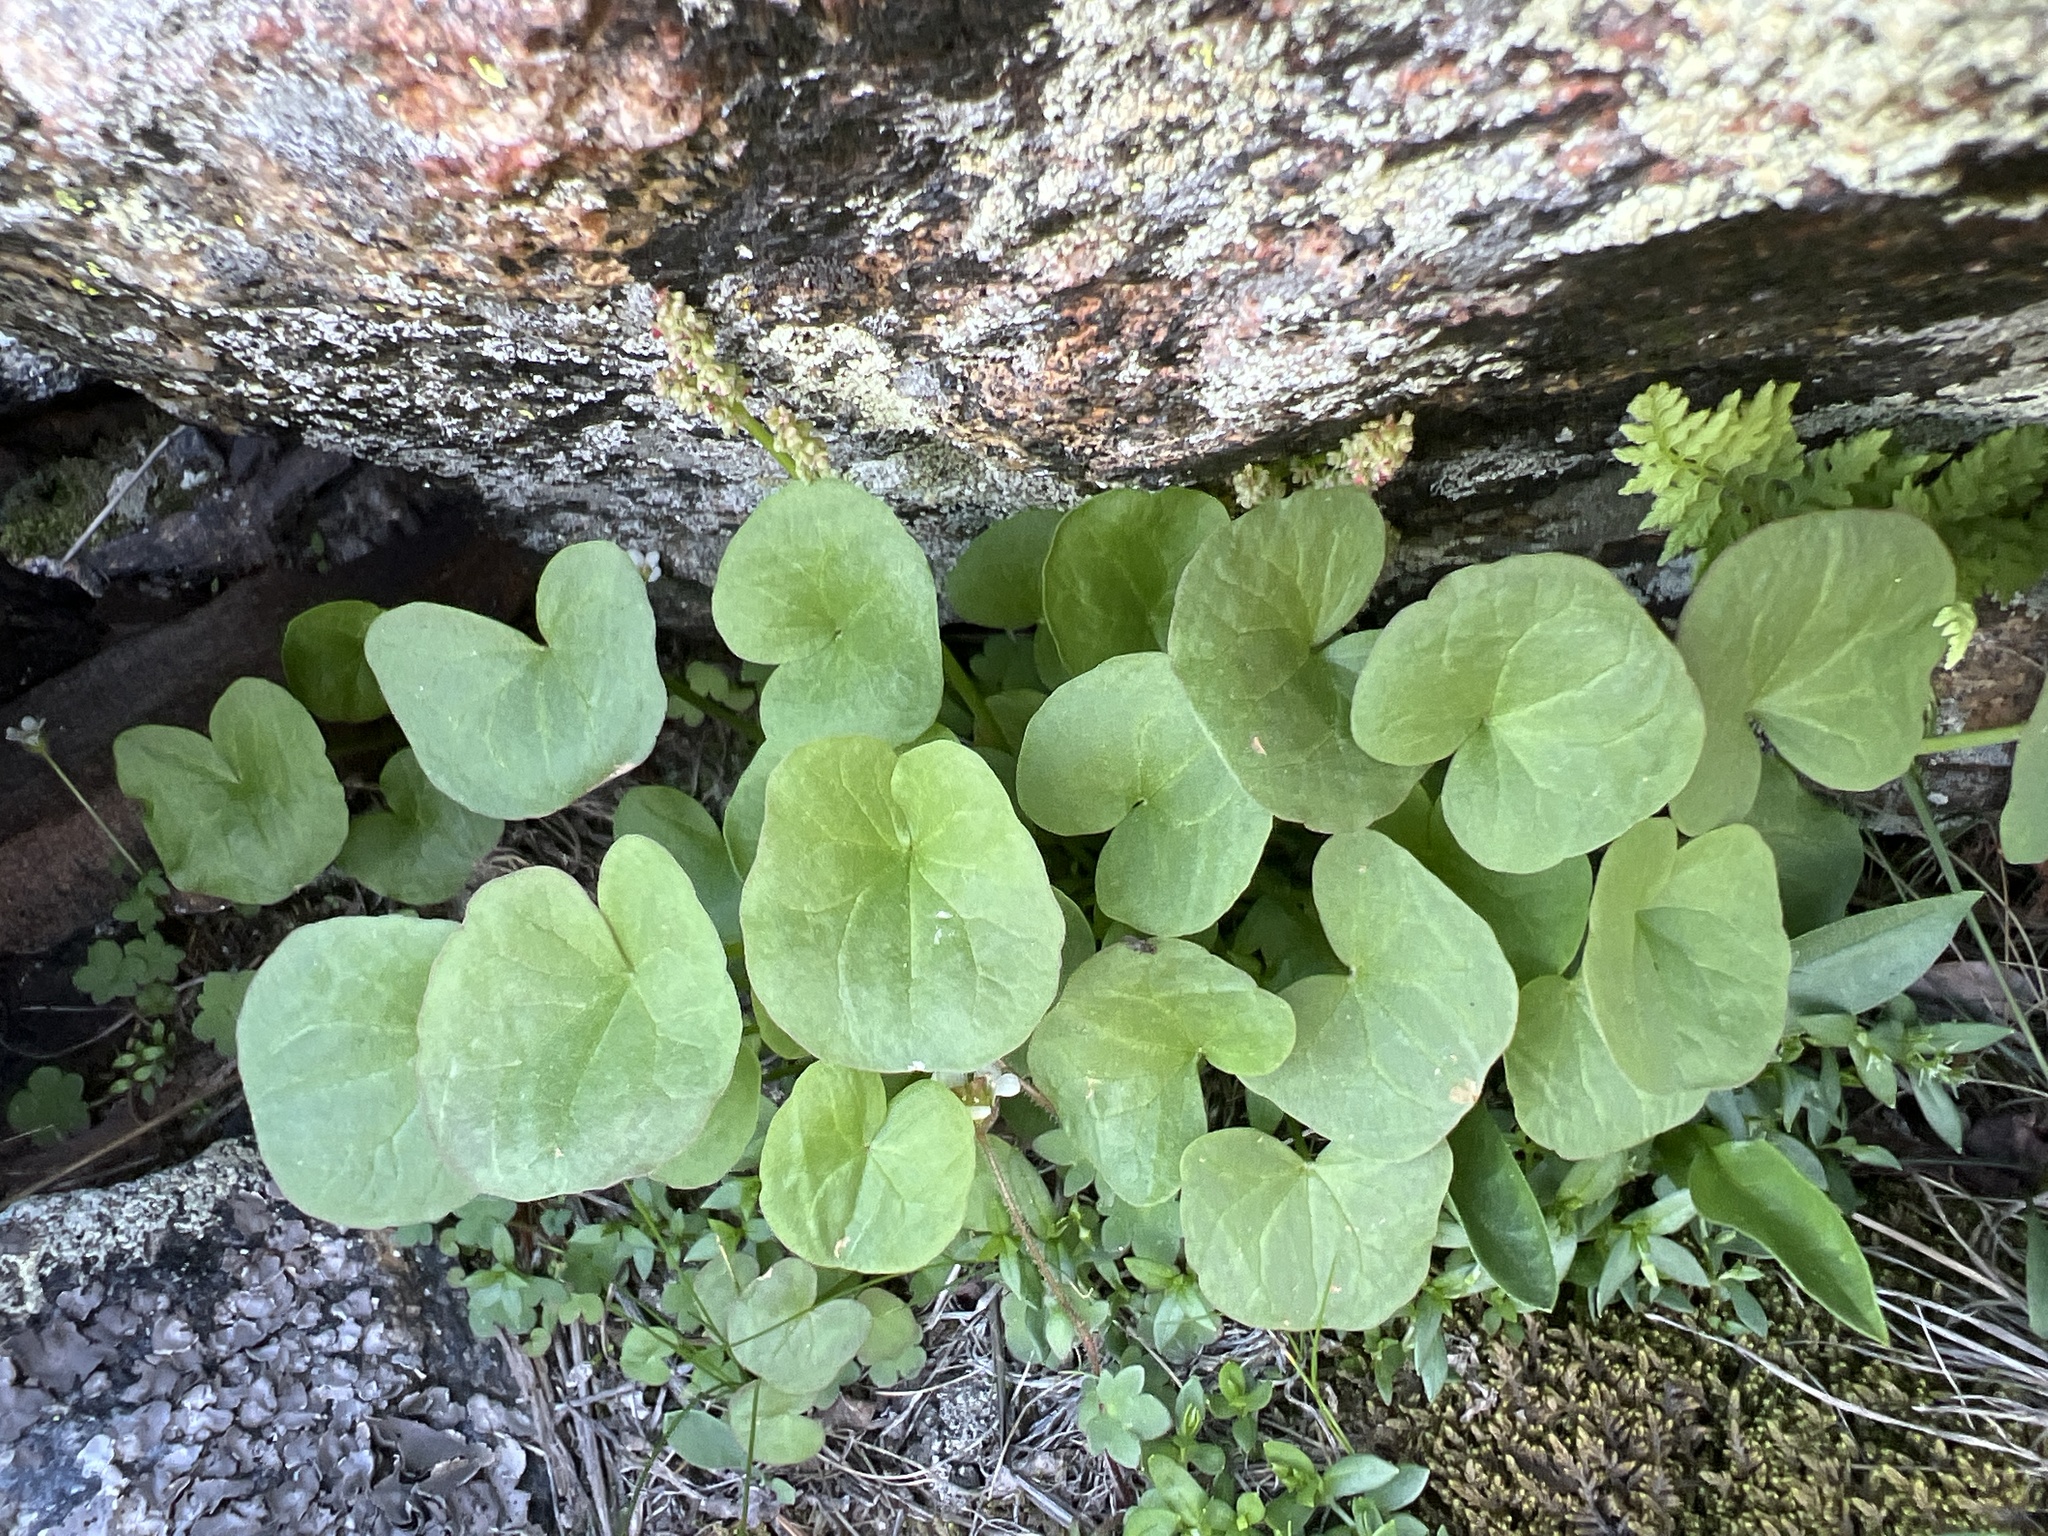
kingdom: Plantae
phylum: Tracheophyta
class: Magnoliopsida
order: Caryophyllales
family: Polygonaceae
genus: Oxyria
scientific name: Oxyria digyna
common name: Alpine mountain-sorrel
